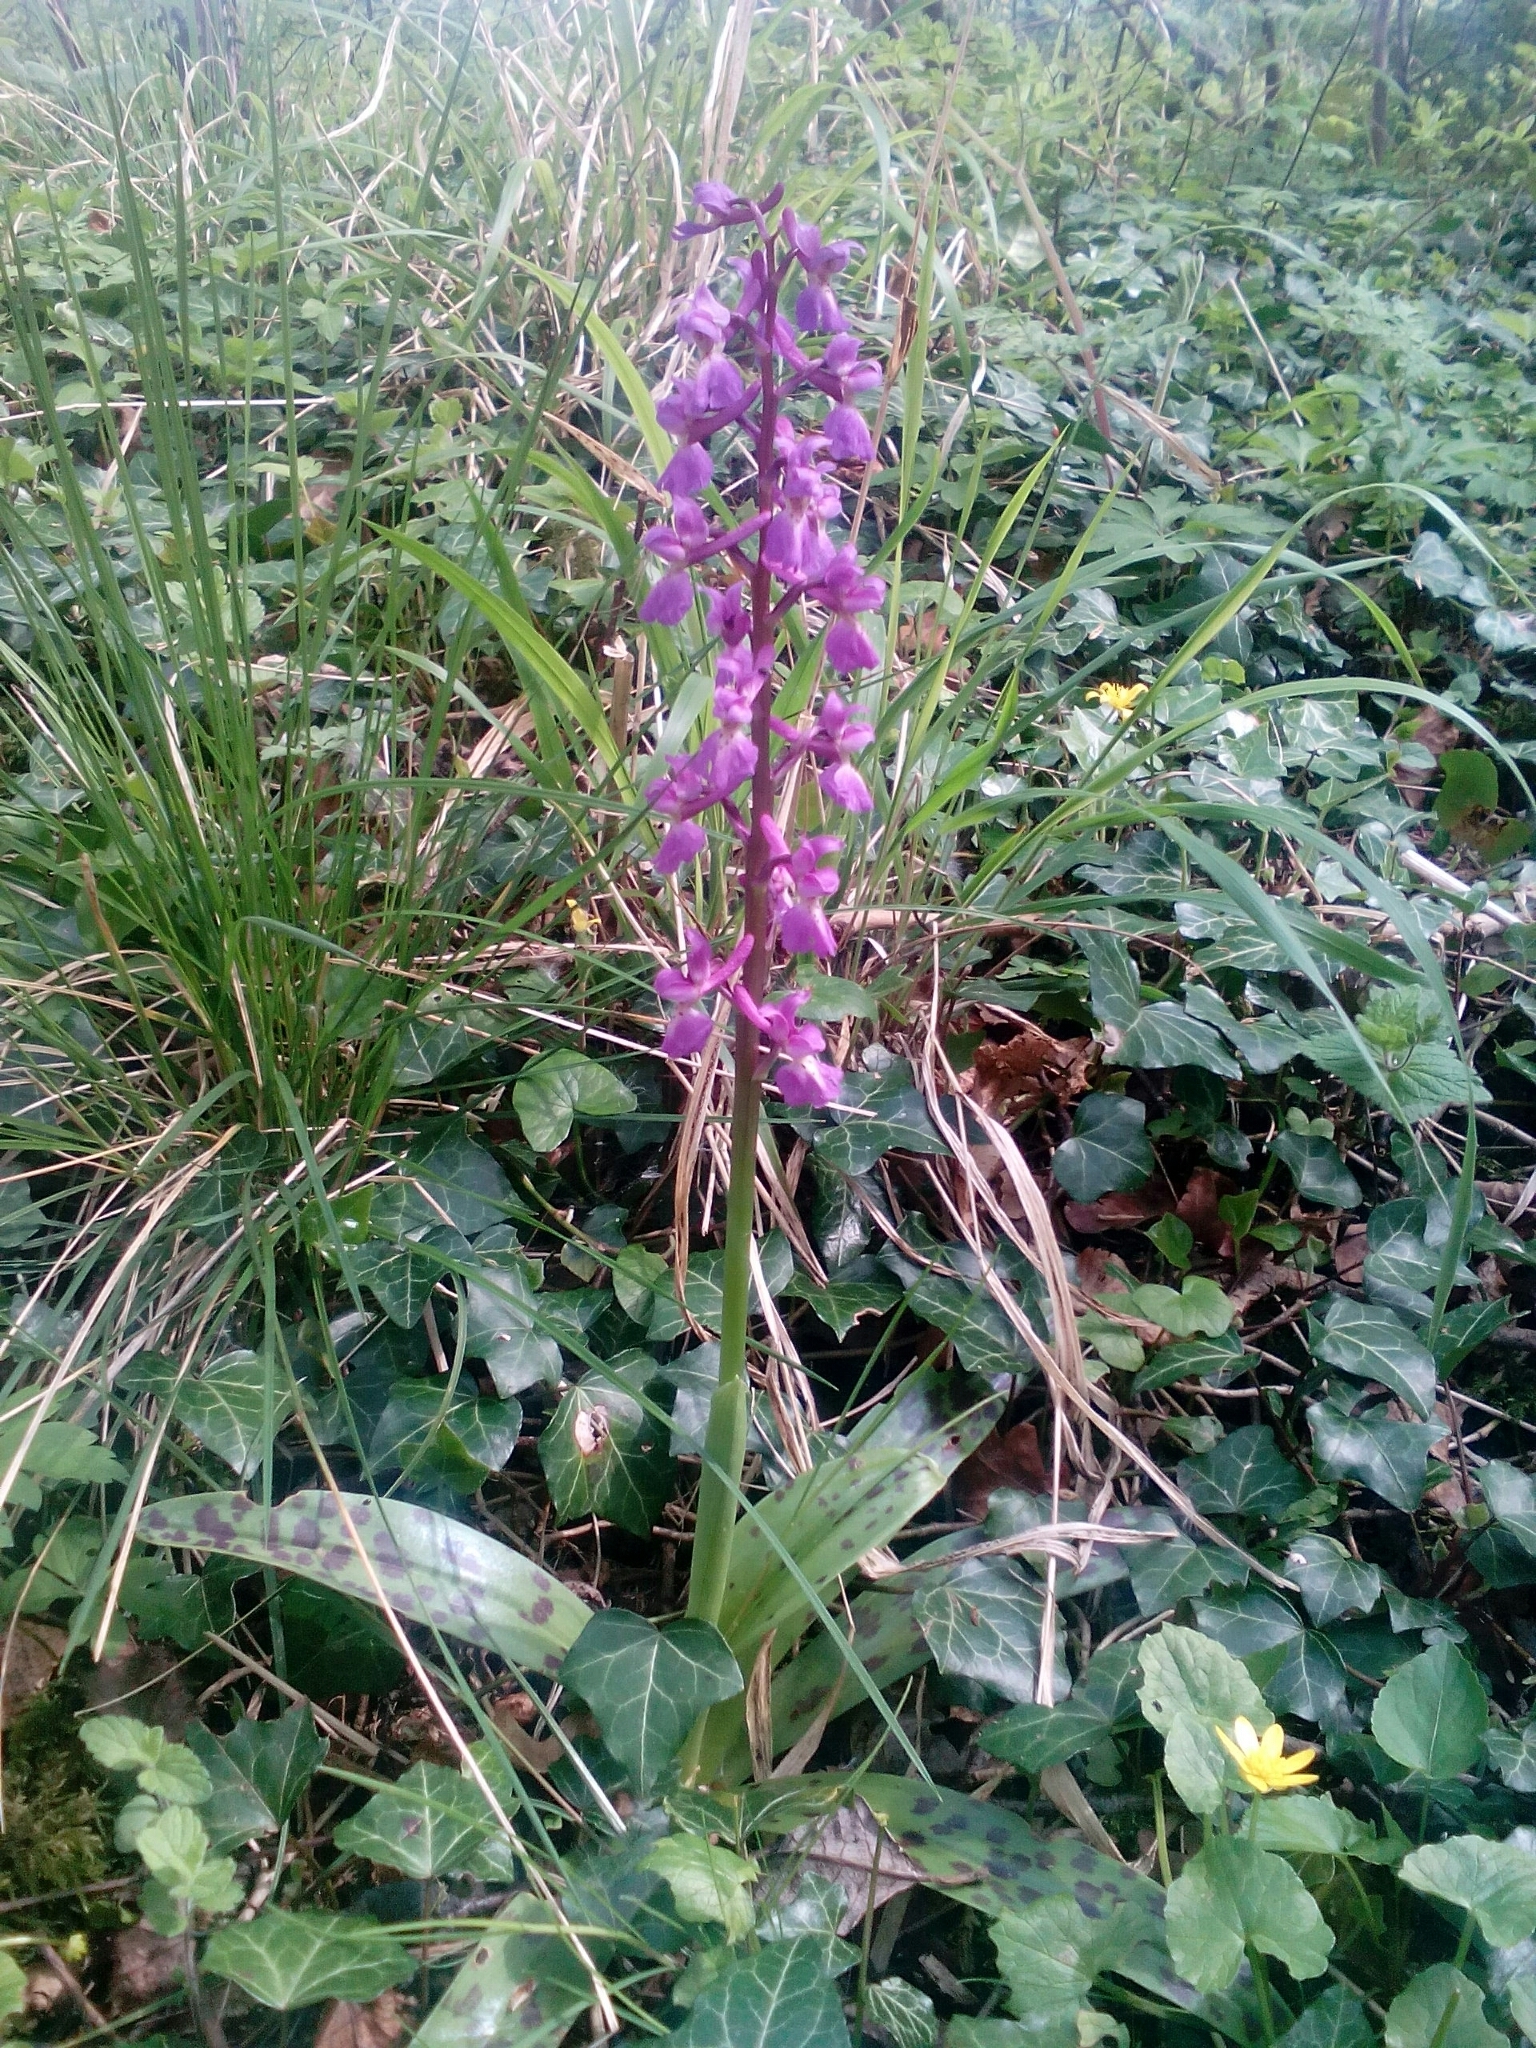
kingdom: Plantae
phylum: Tracheophyta
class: Liliopsida
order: Asparagales
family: Orchidaceae
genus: Orchis
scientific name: Orchis mascula
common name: Early-purple orchid
